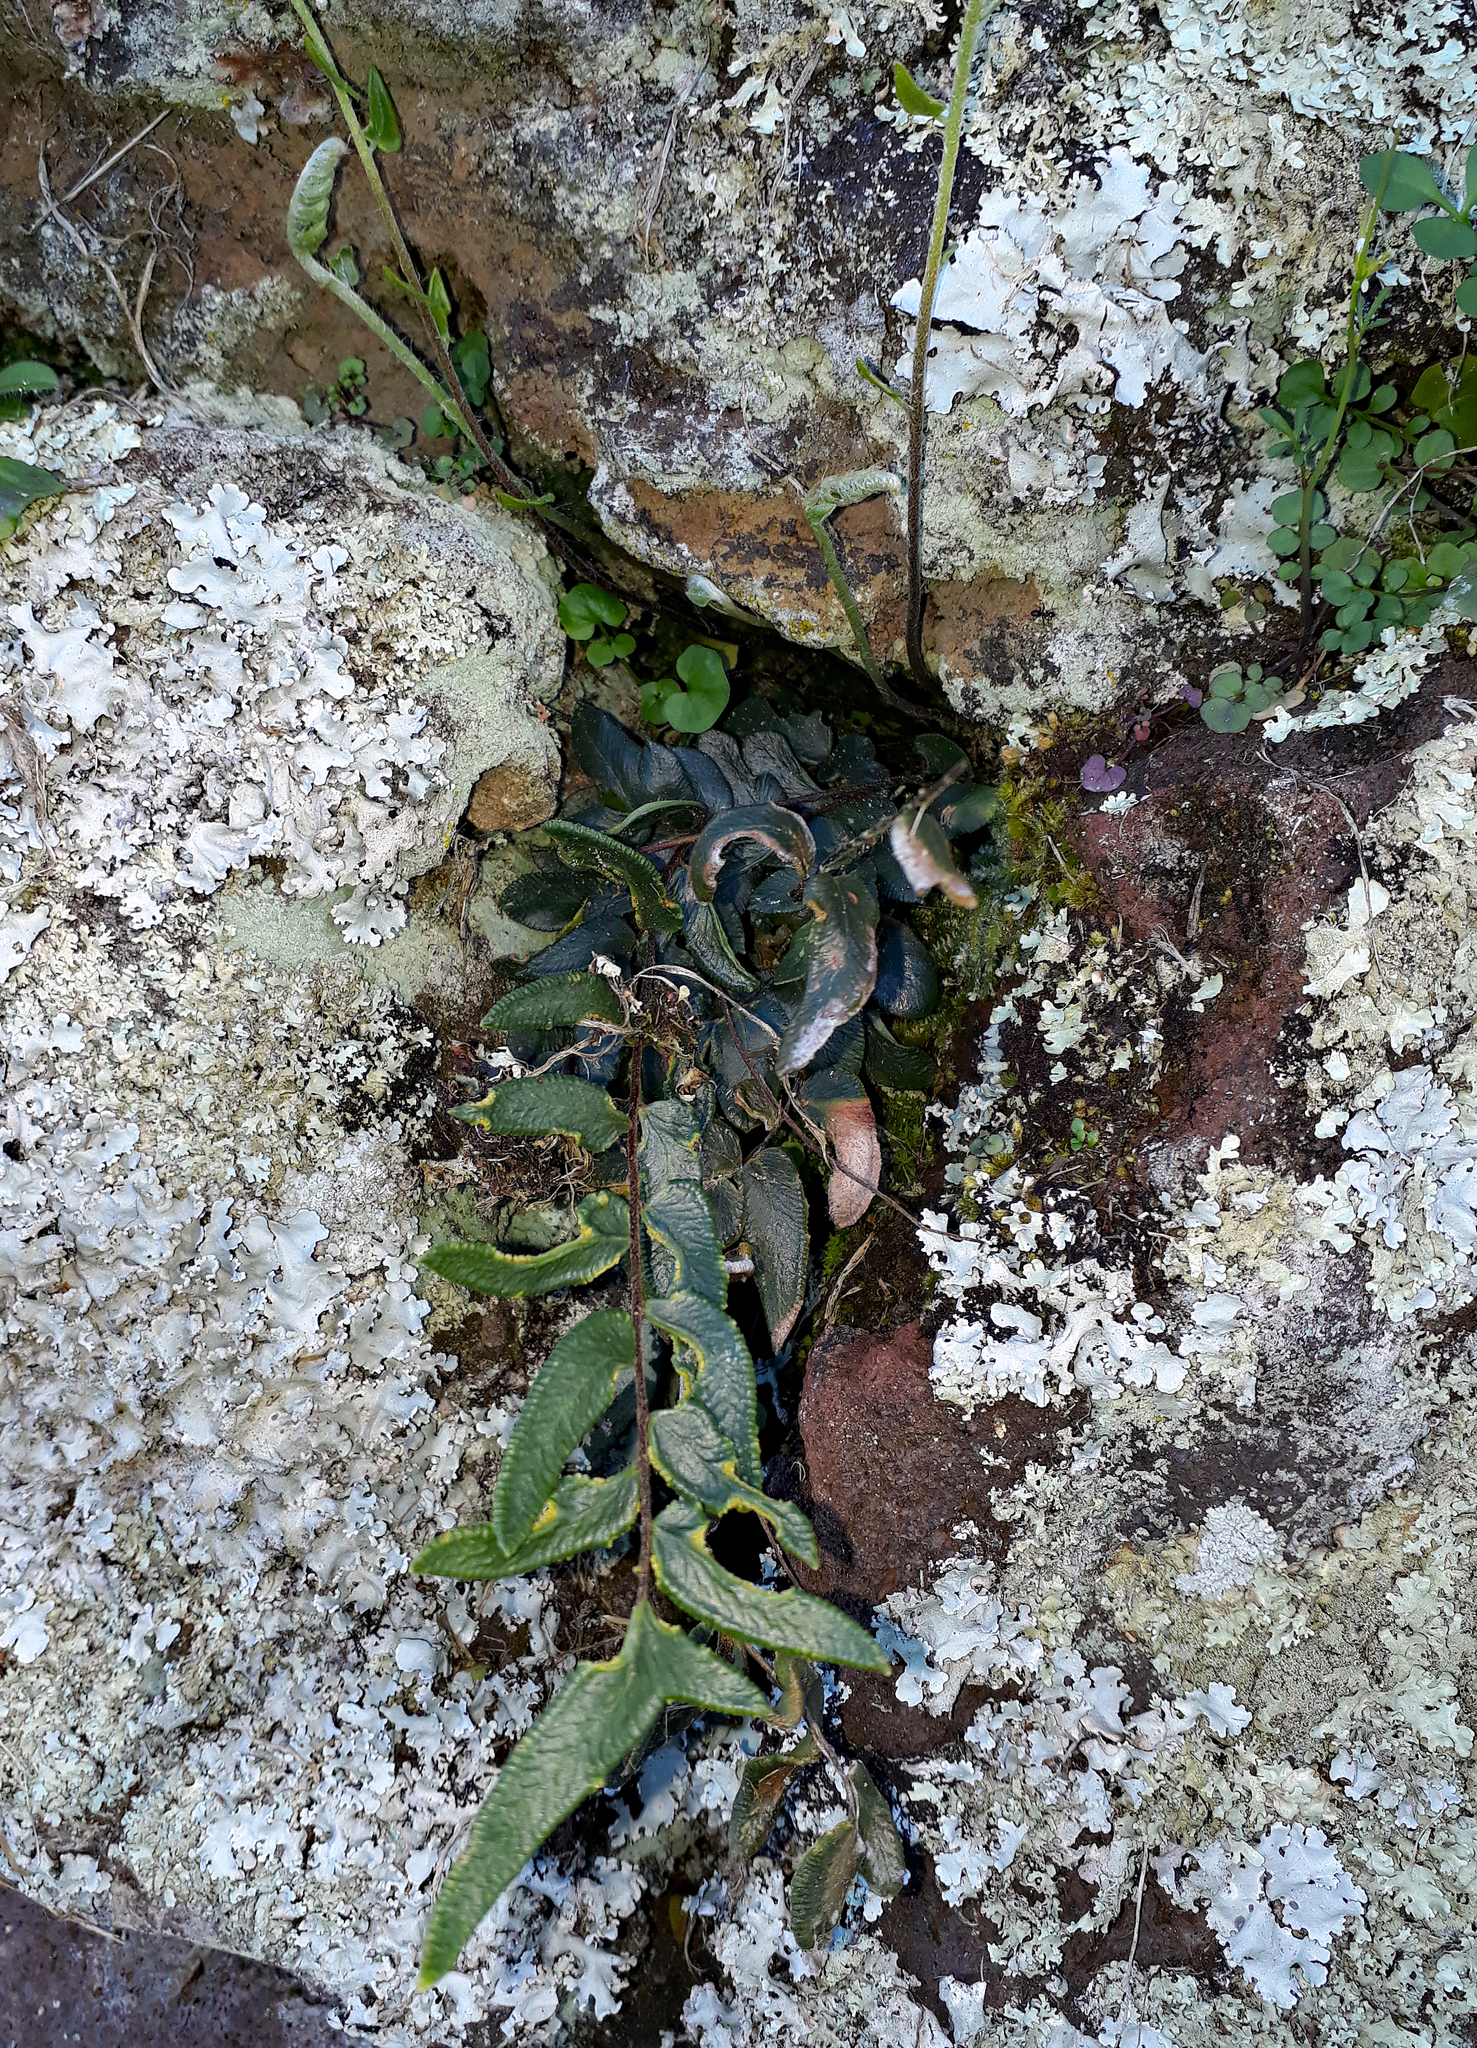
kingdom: Plantae
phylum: Tracheophyta
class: Polypodiopsida
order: Polypodiales
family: Pteridaceae
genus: Pellaea
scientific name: Pellaea rotundifolia
